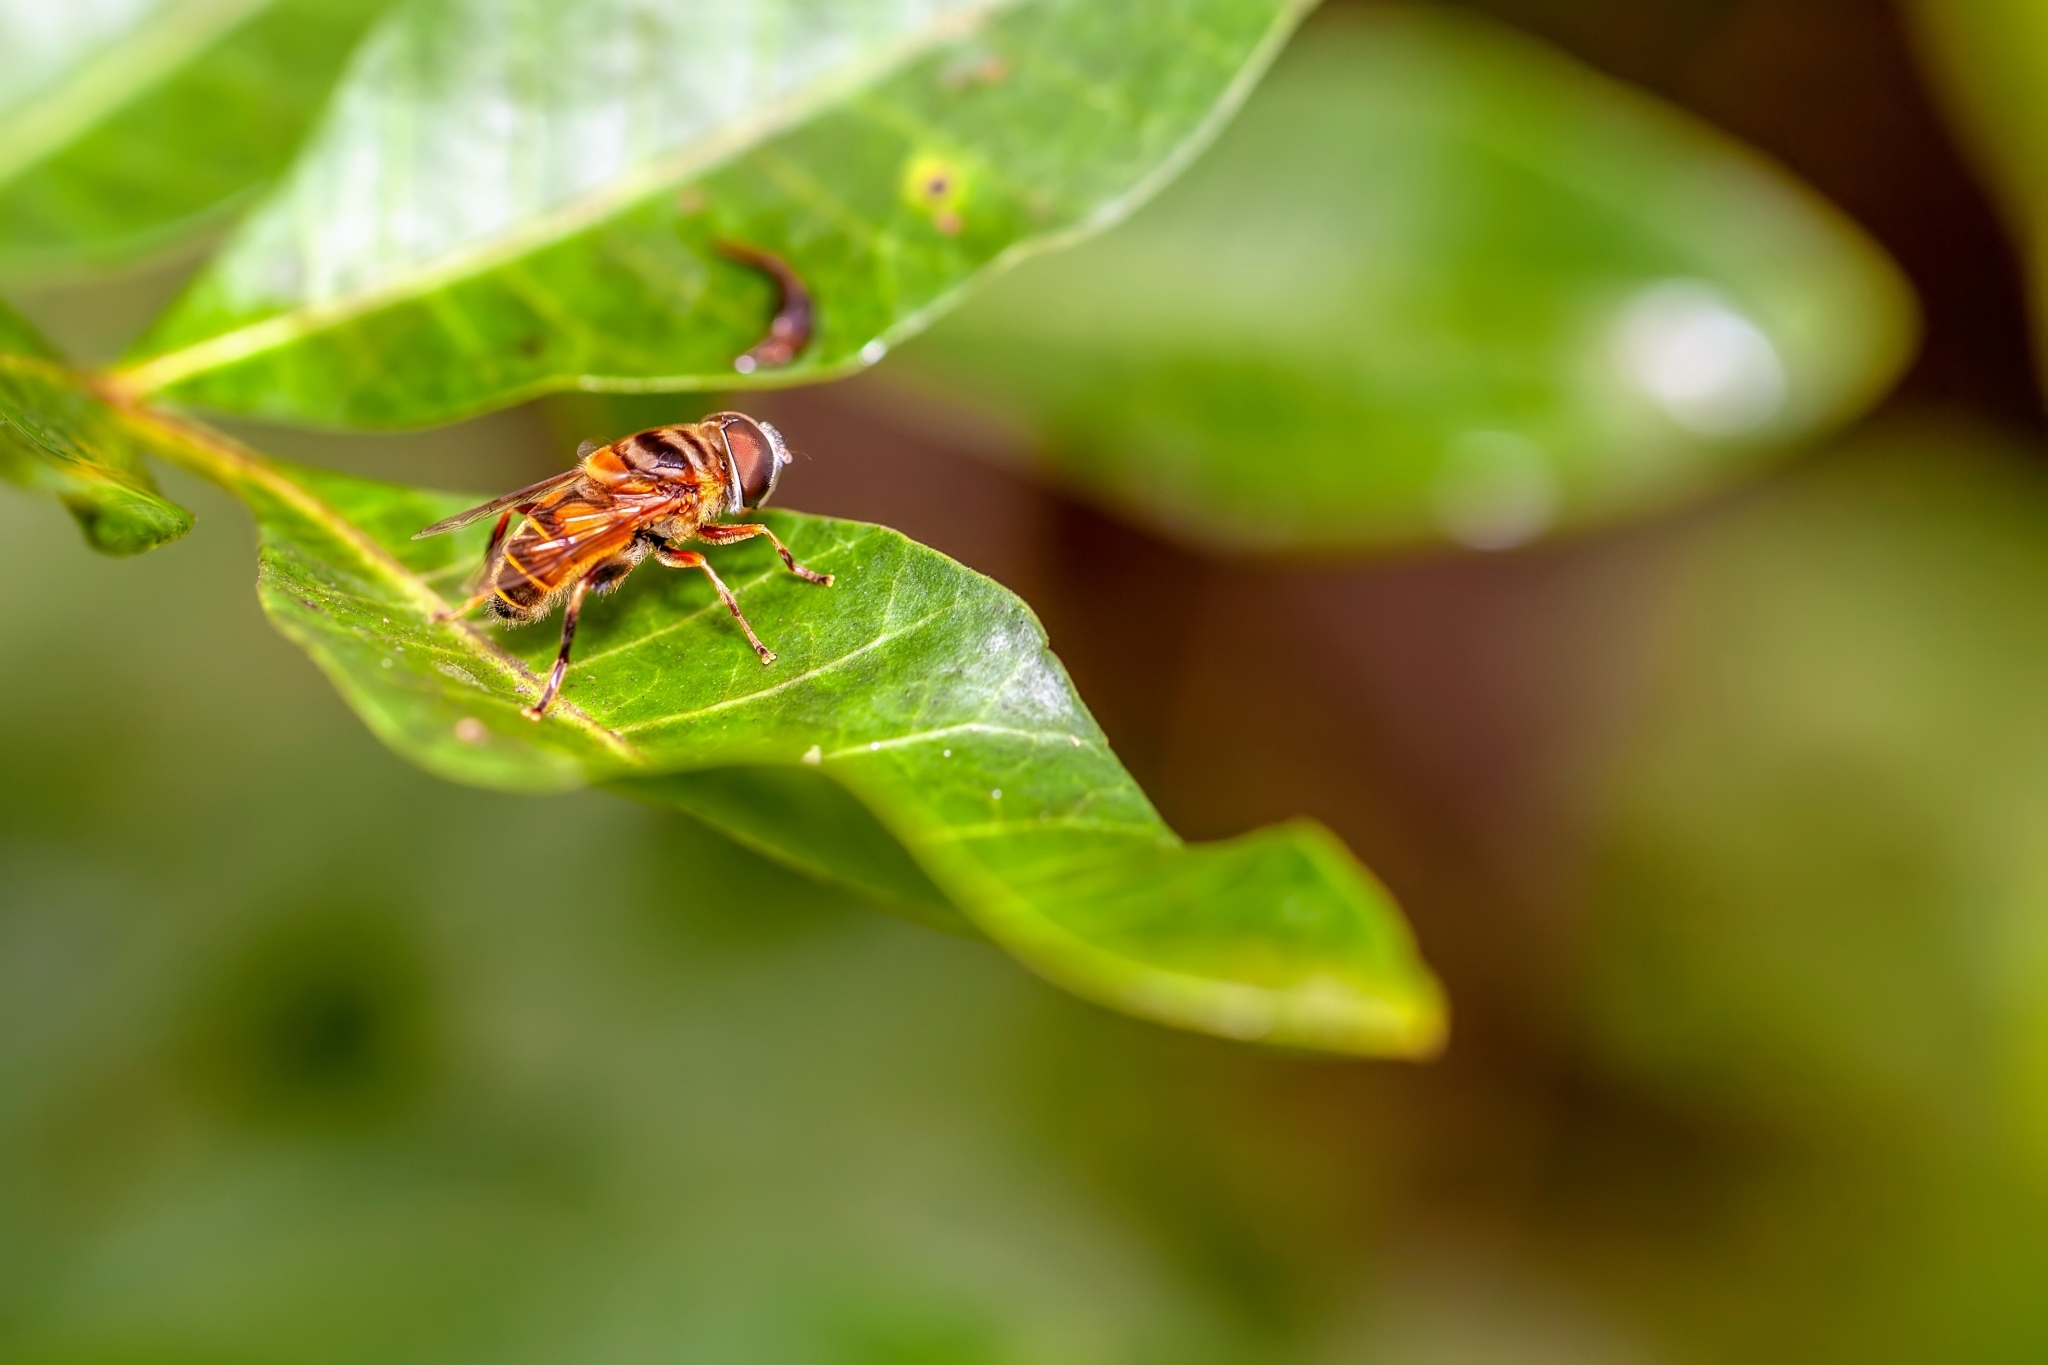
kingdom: Animalia
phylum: Arthropoda
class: Insecta
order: Diptera
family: Syrphidae
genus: Palpada
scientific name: Palpada vinetorum
